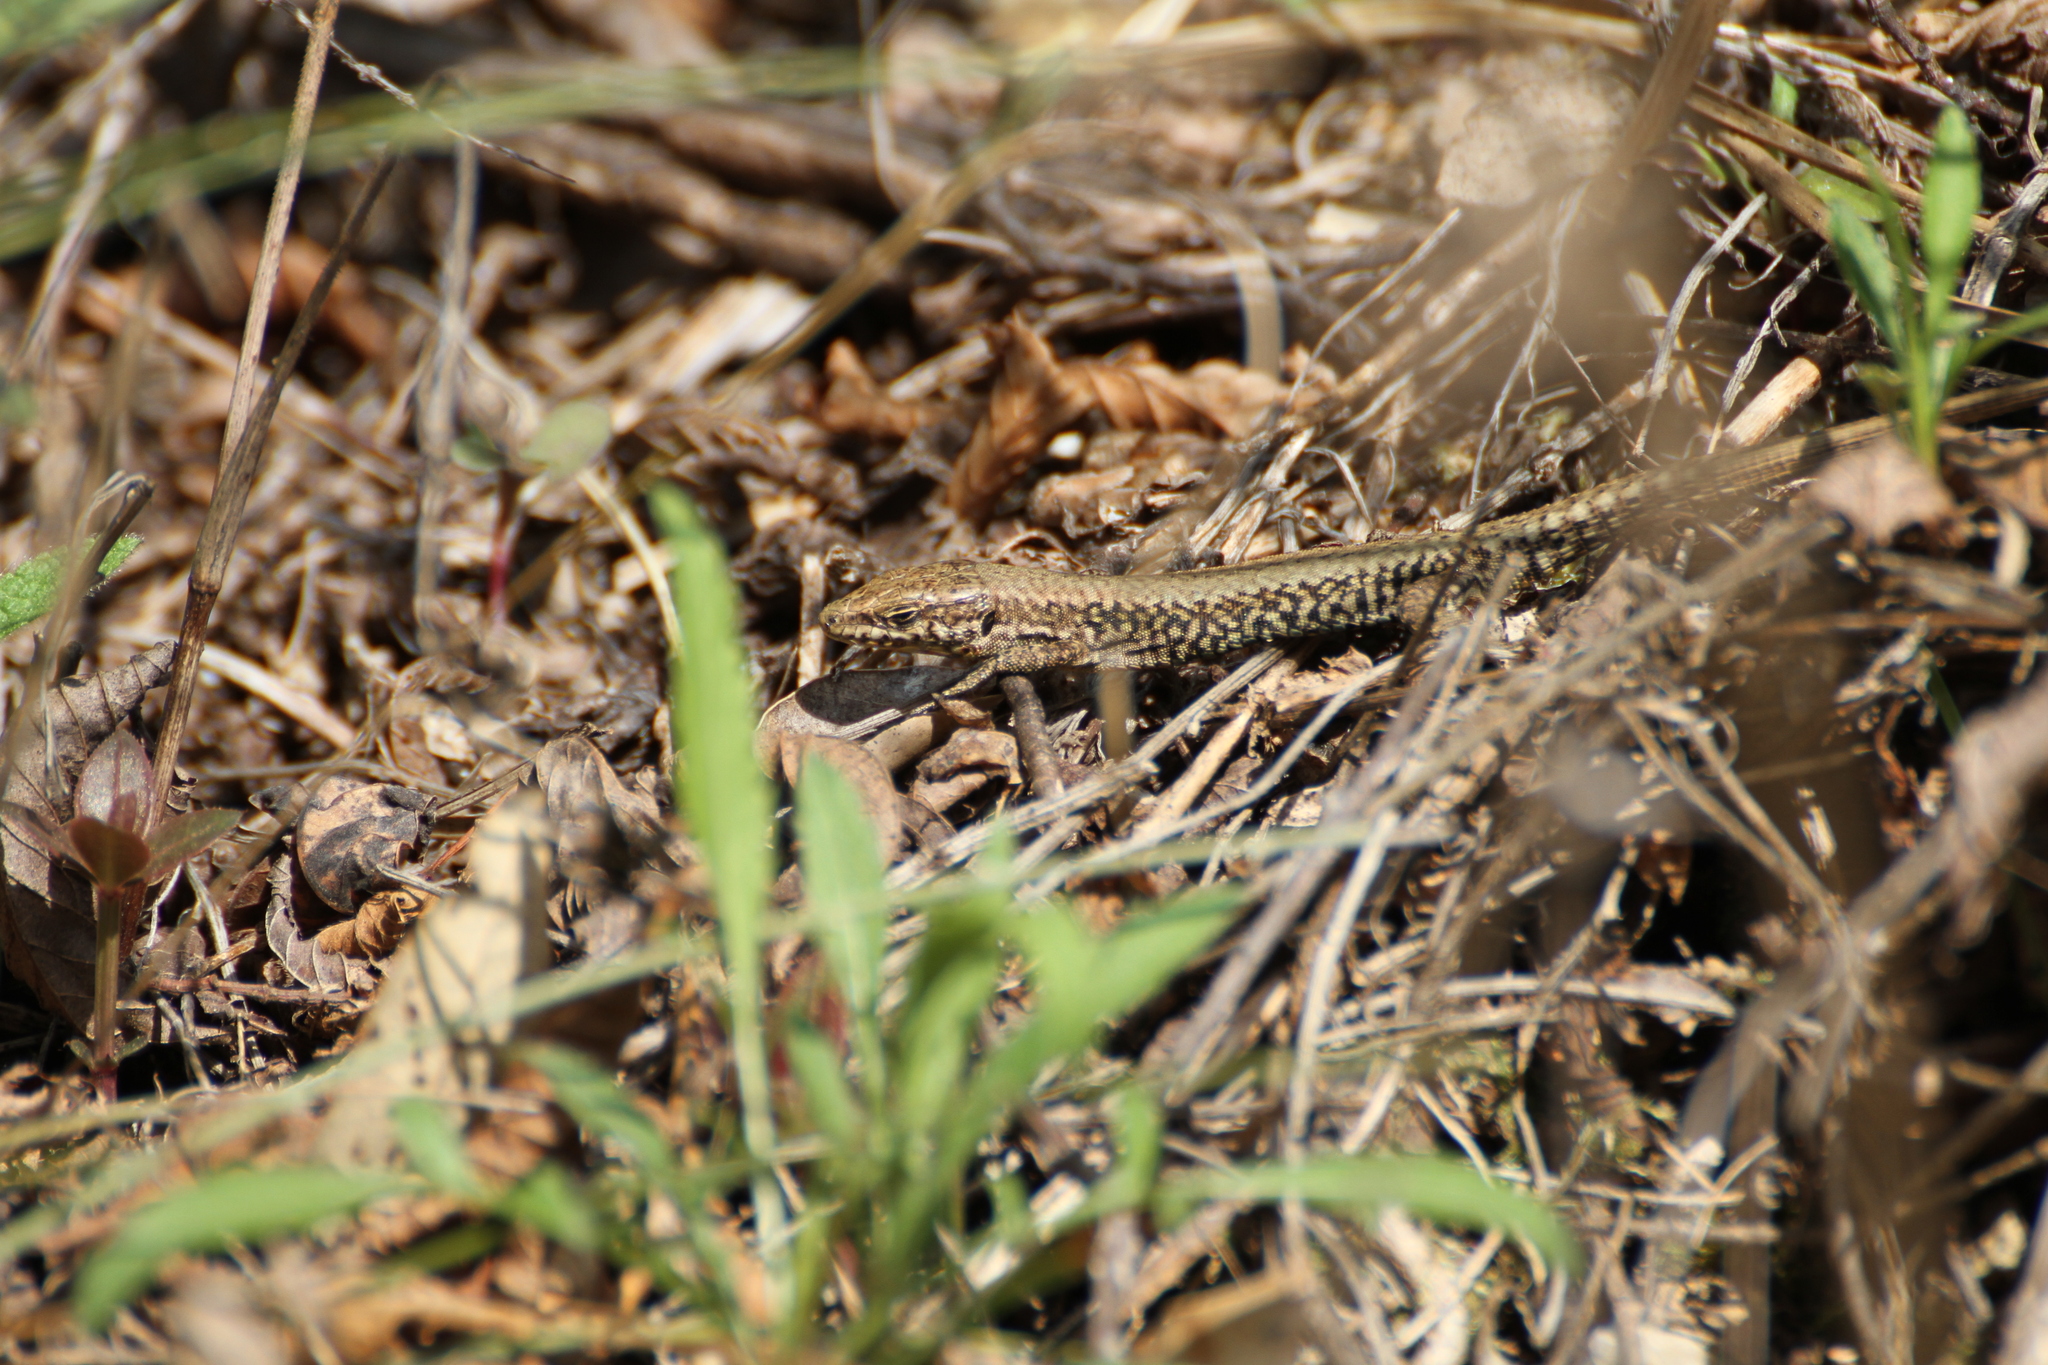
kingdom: Animalia
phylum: Chordata
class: Squamata
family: Lacertidae
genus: Podarcis
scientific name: Podarcis muralis
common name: Common wall lizard
